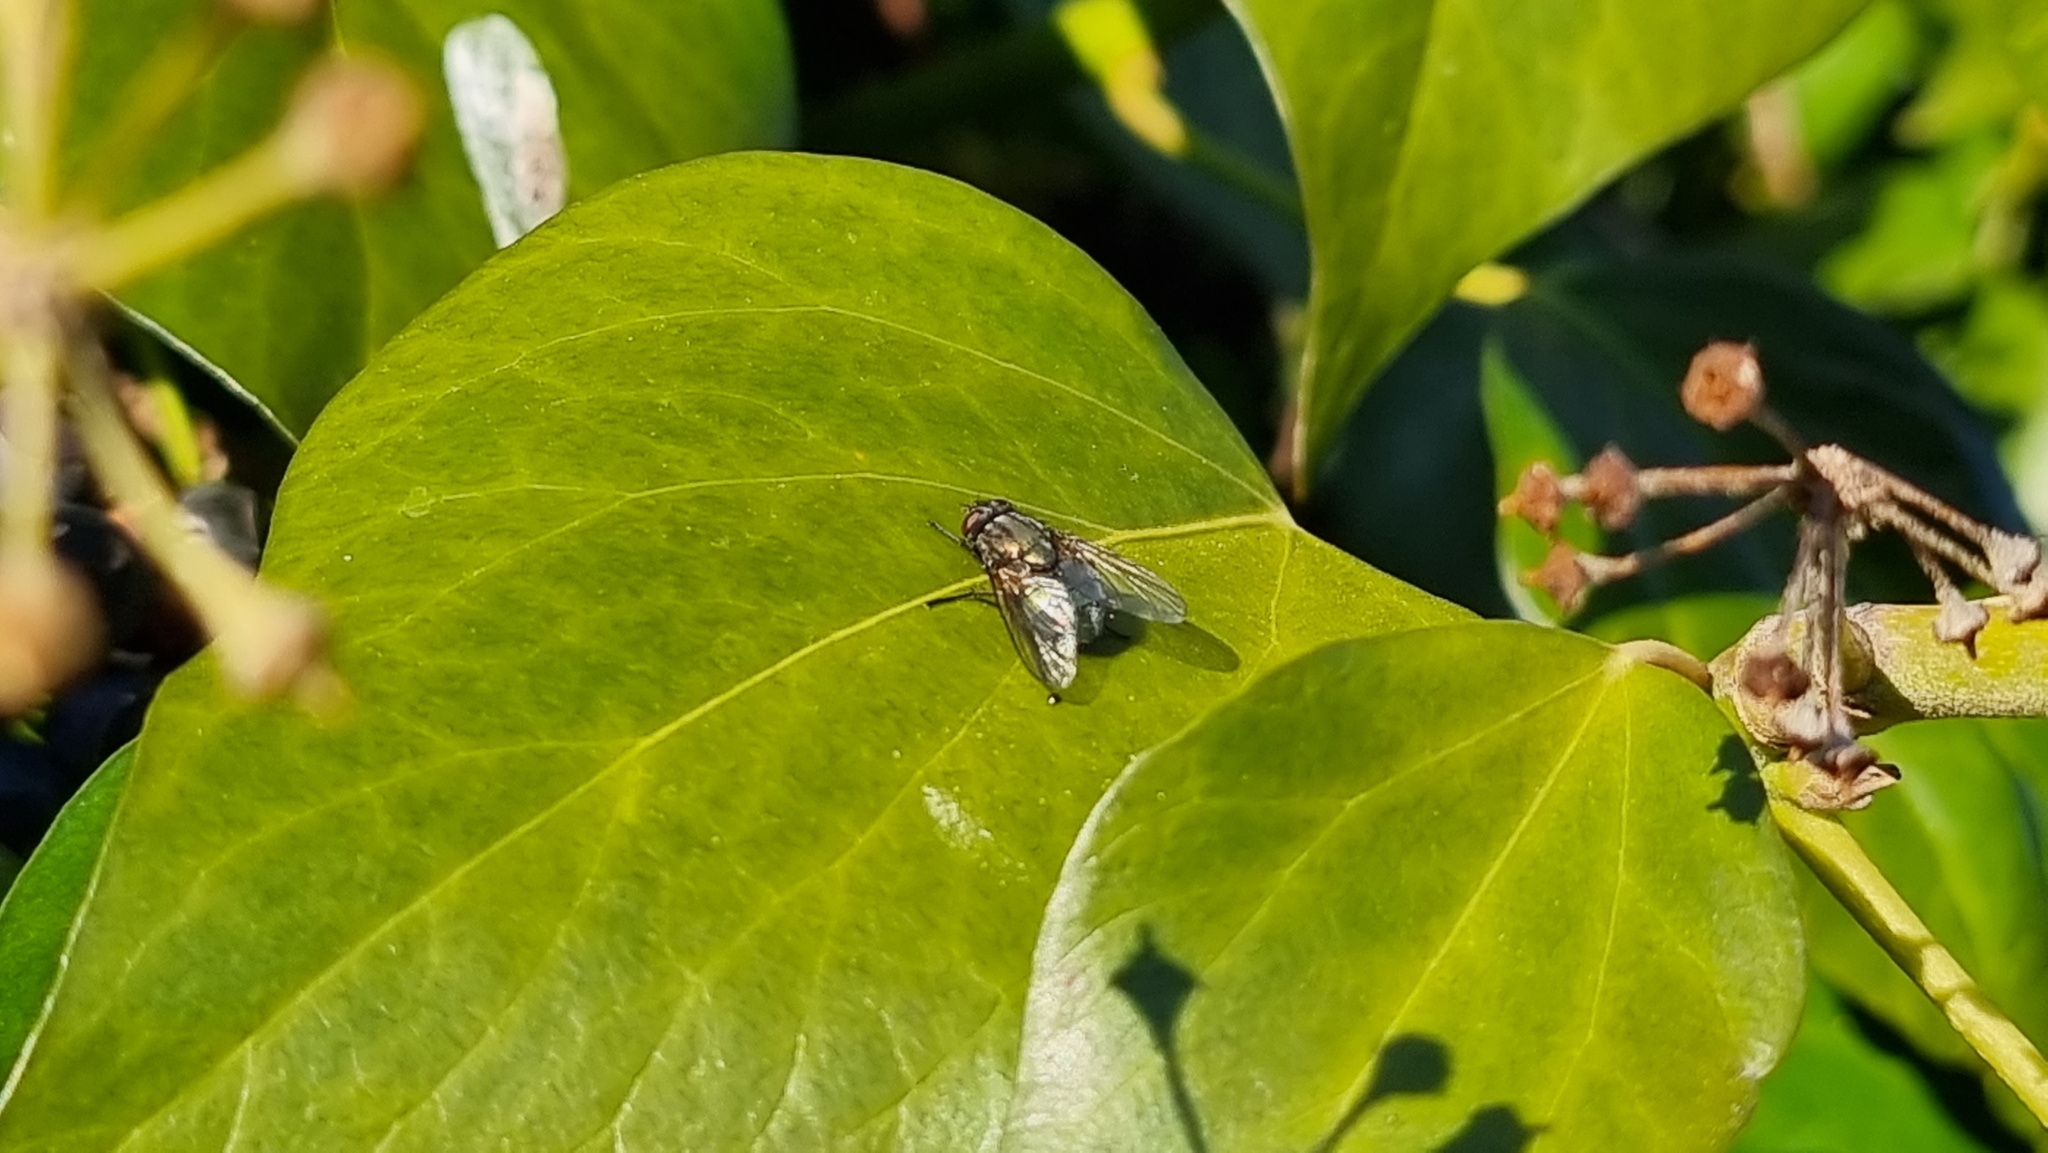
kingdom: Animalia
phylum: Arthropoda
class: Insecta
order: Diptera
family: Muscidae
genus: Dasyphora
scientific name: Dasyphora cyanella
